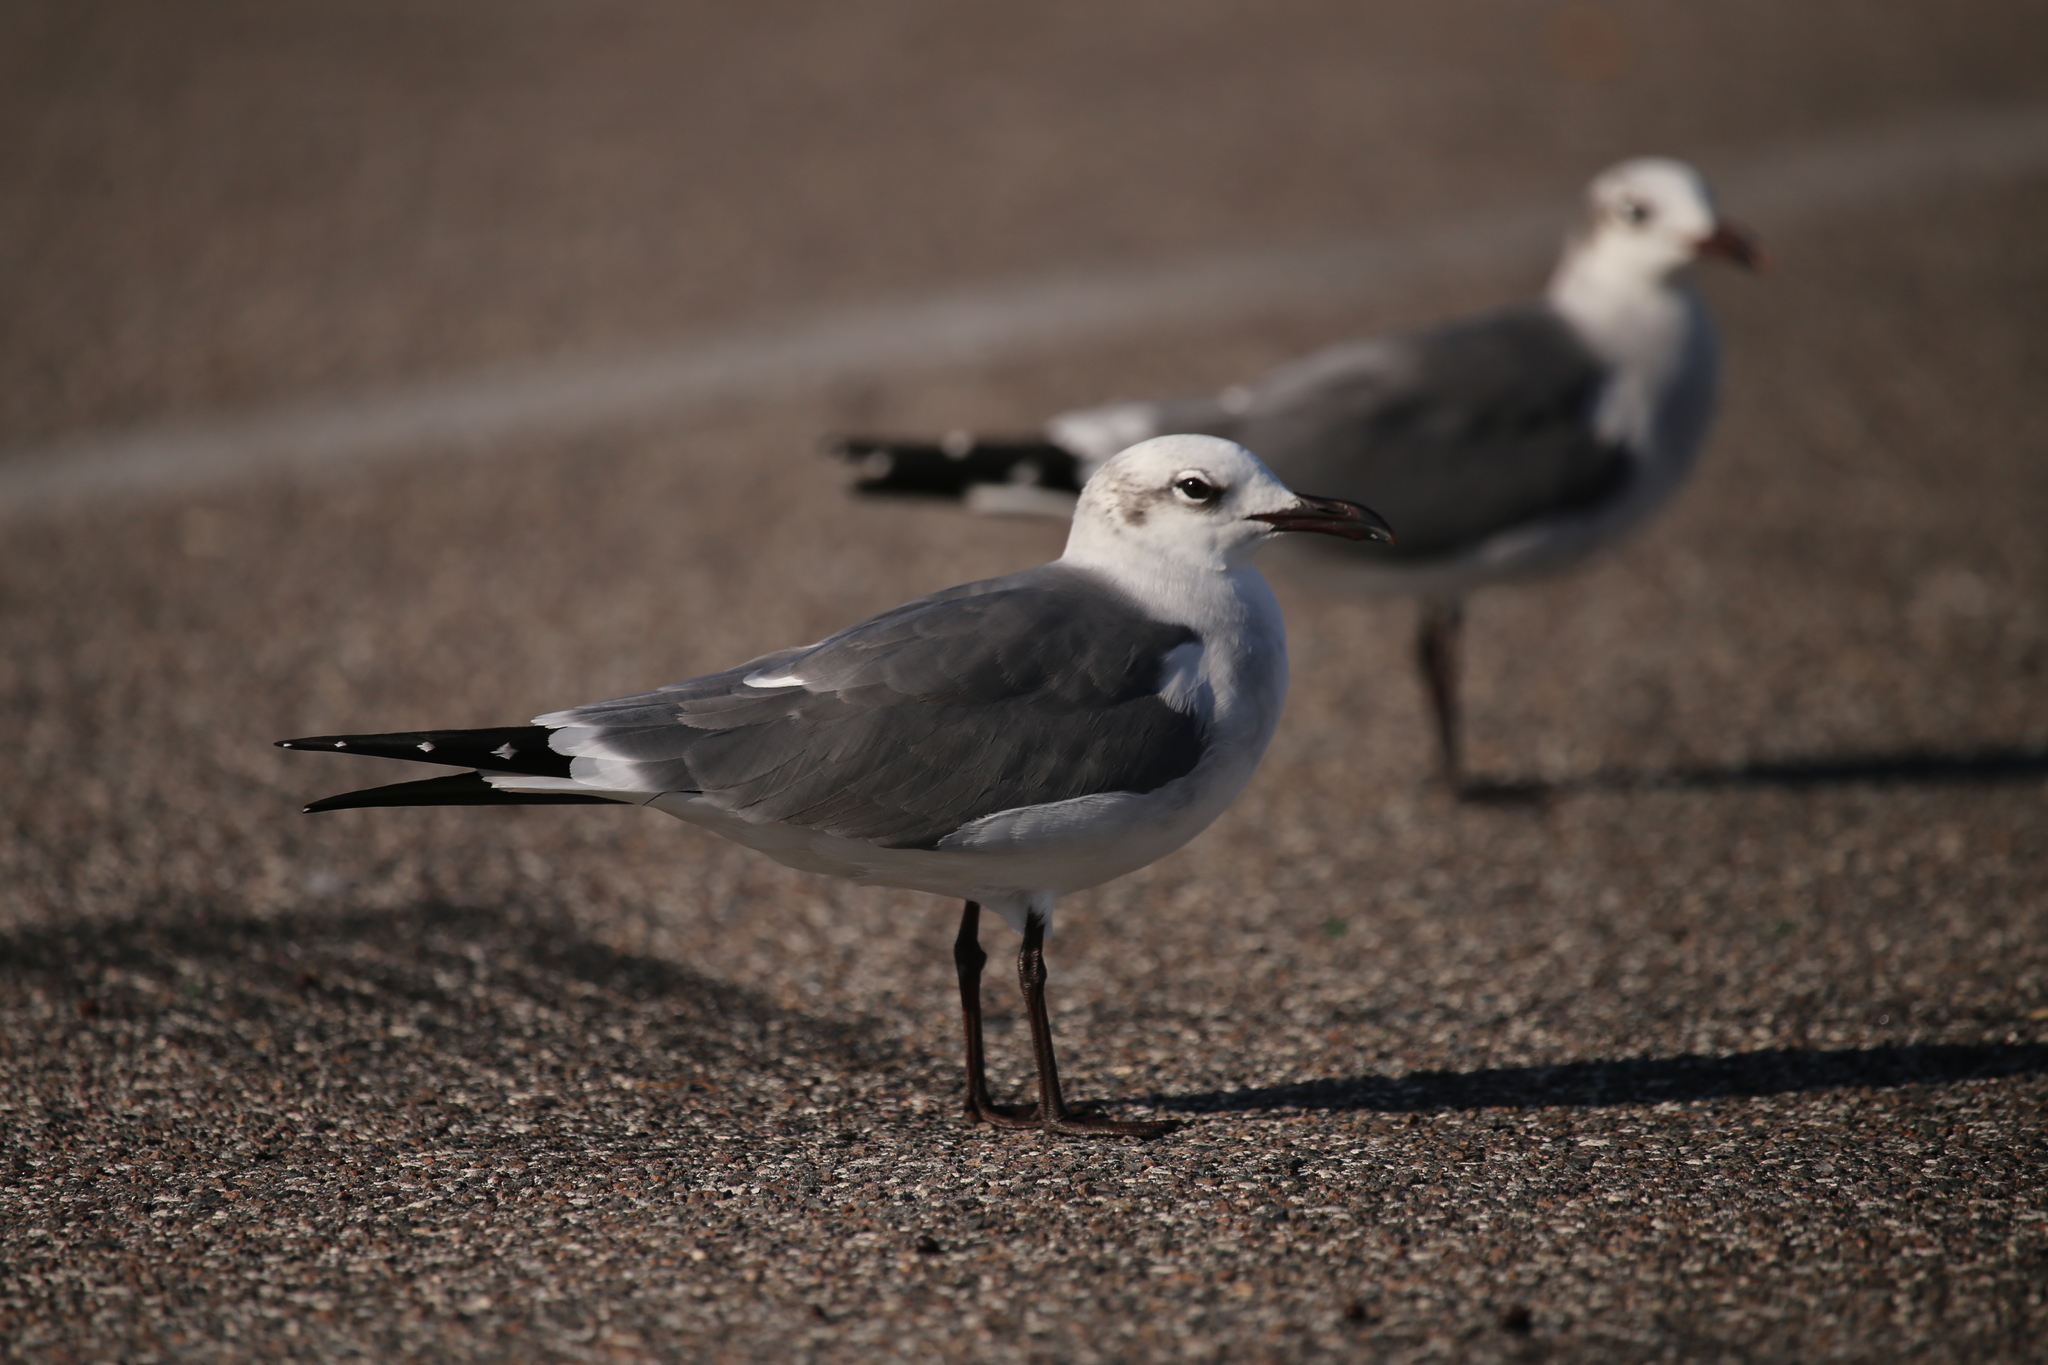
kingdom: Animalia
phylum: Chordata
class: Aves
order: Charadriiformes
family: Laridae
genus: Leucophaeus
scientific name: Leucophaeus atricilla
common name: Laughing gull
